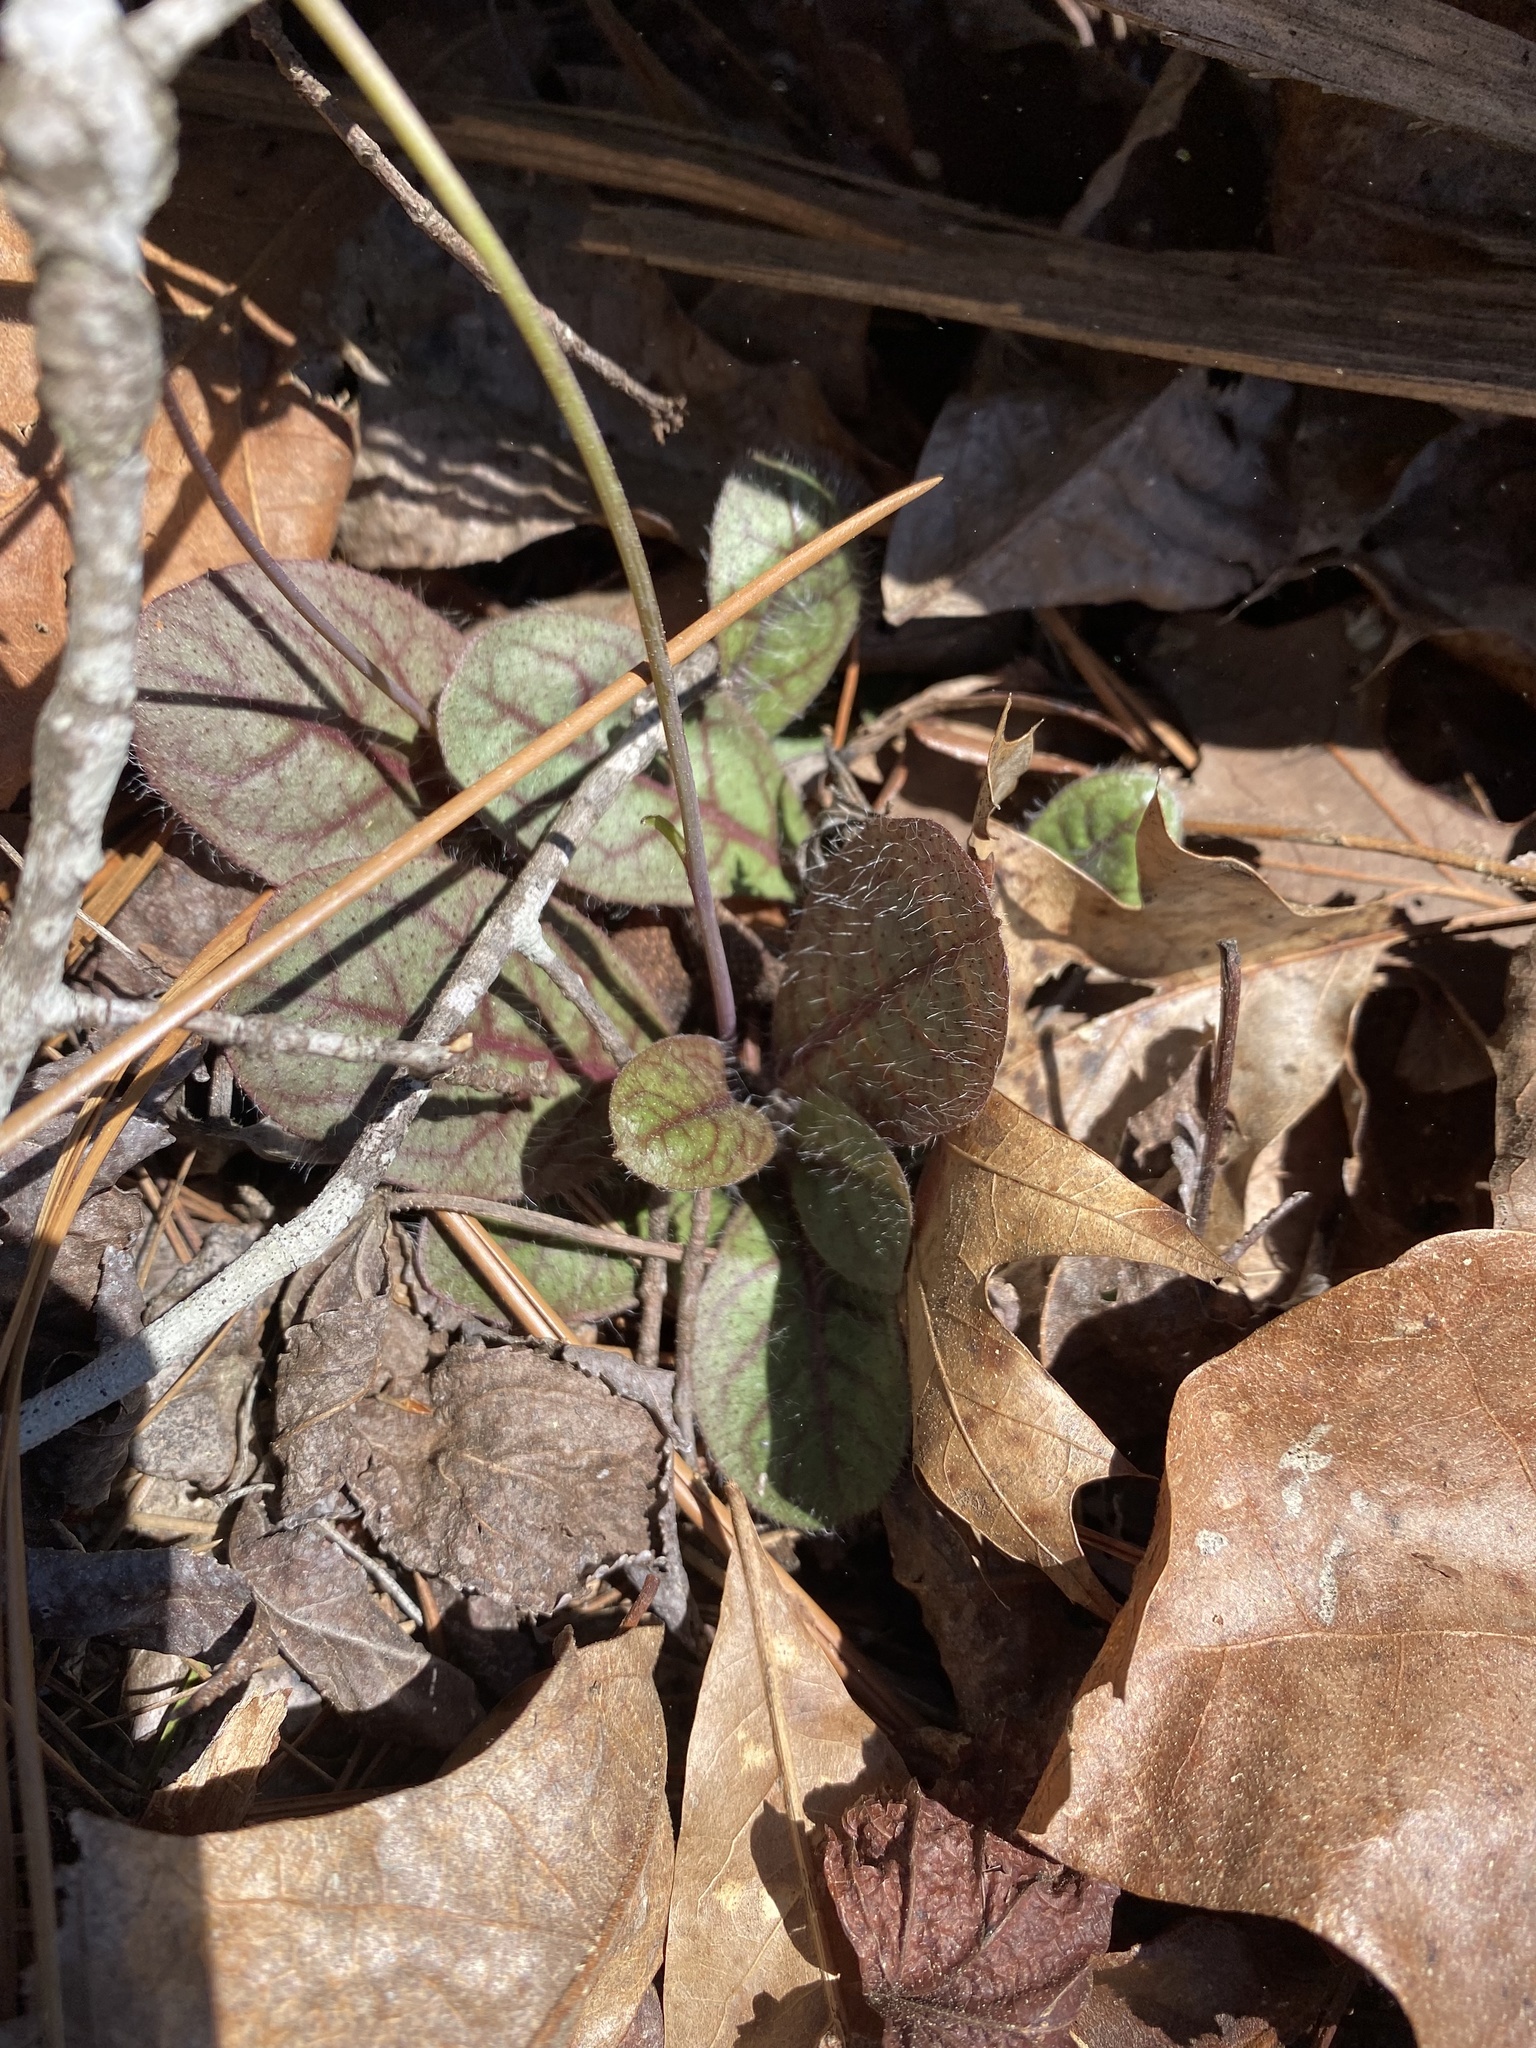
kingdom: Plantae
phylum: Tracheophyta
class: Magnoliopsida
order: Asterales
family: Asteraceae
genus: Hieracium
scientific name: Hieracium venosum
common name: Rattlesnake hawkweed
